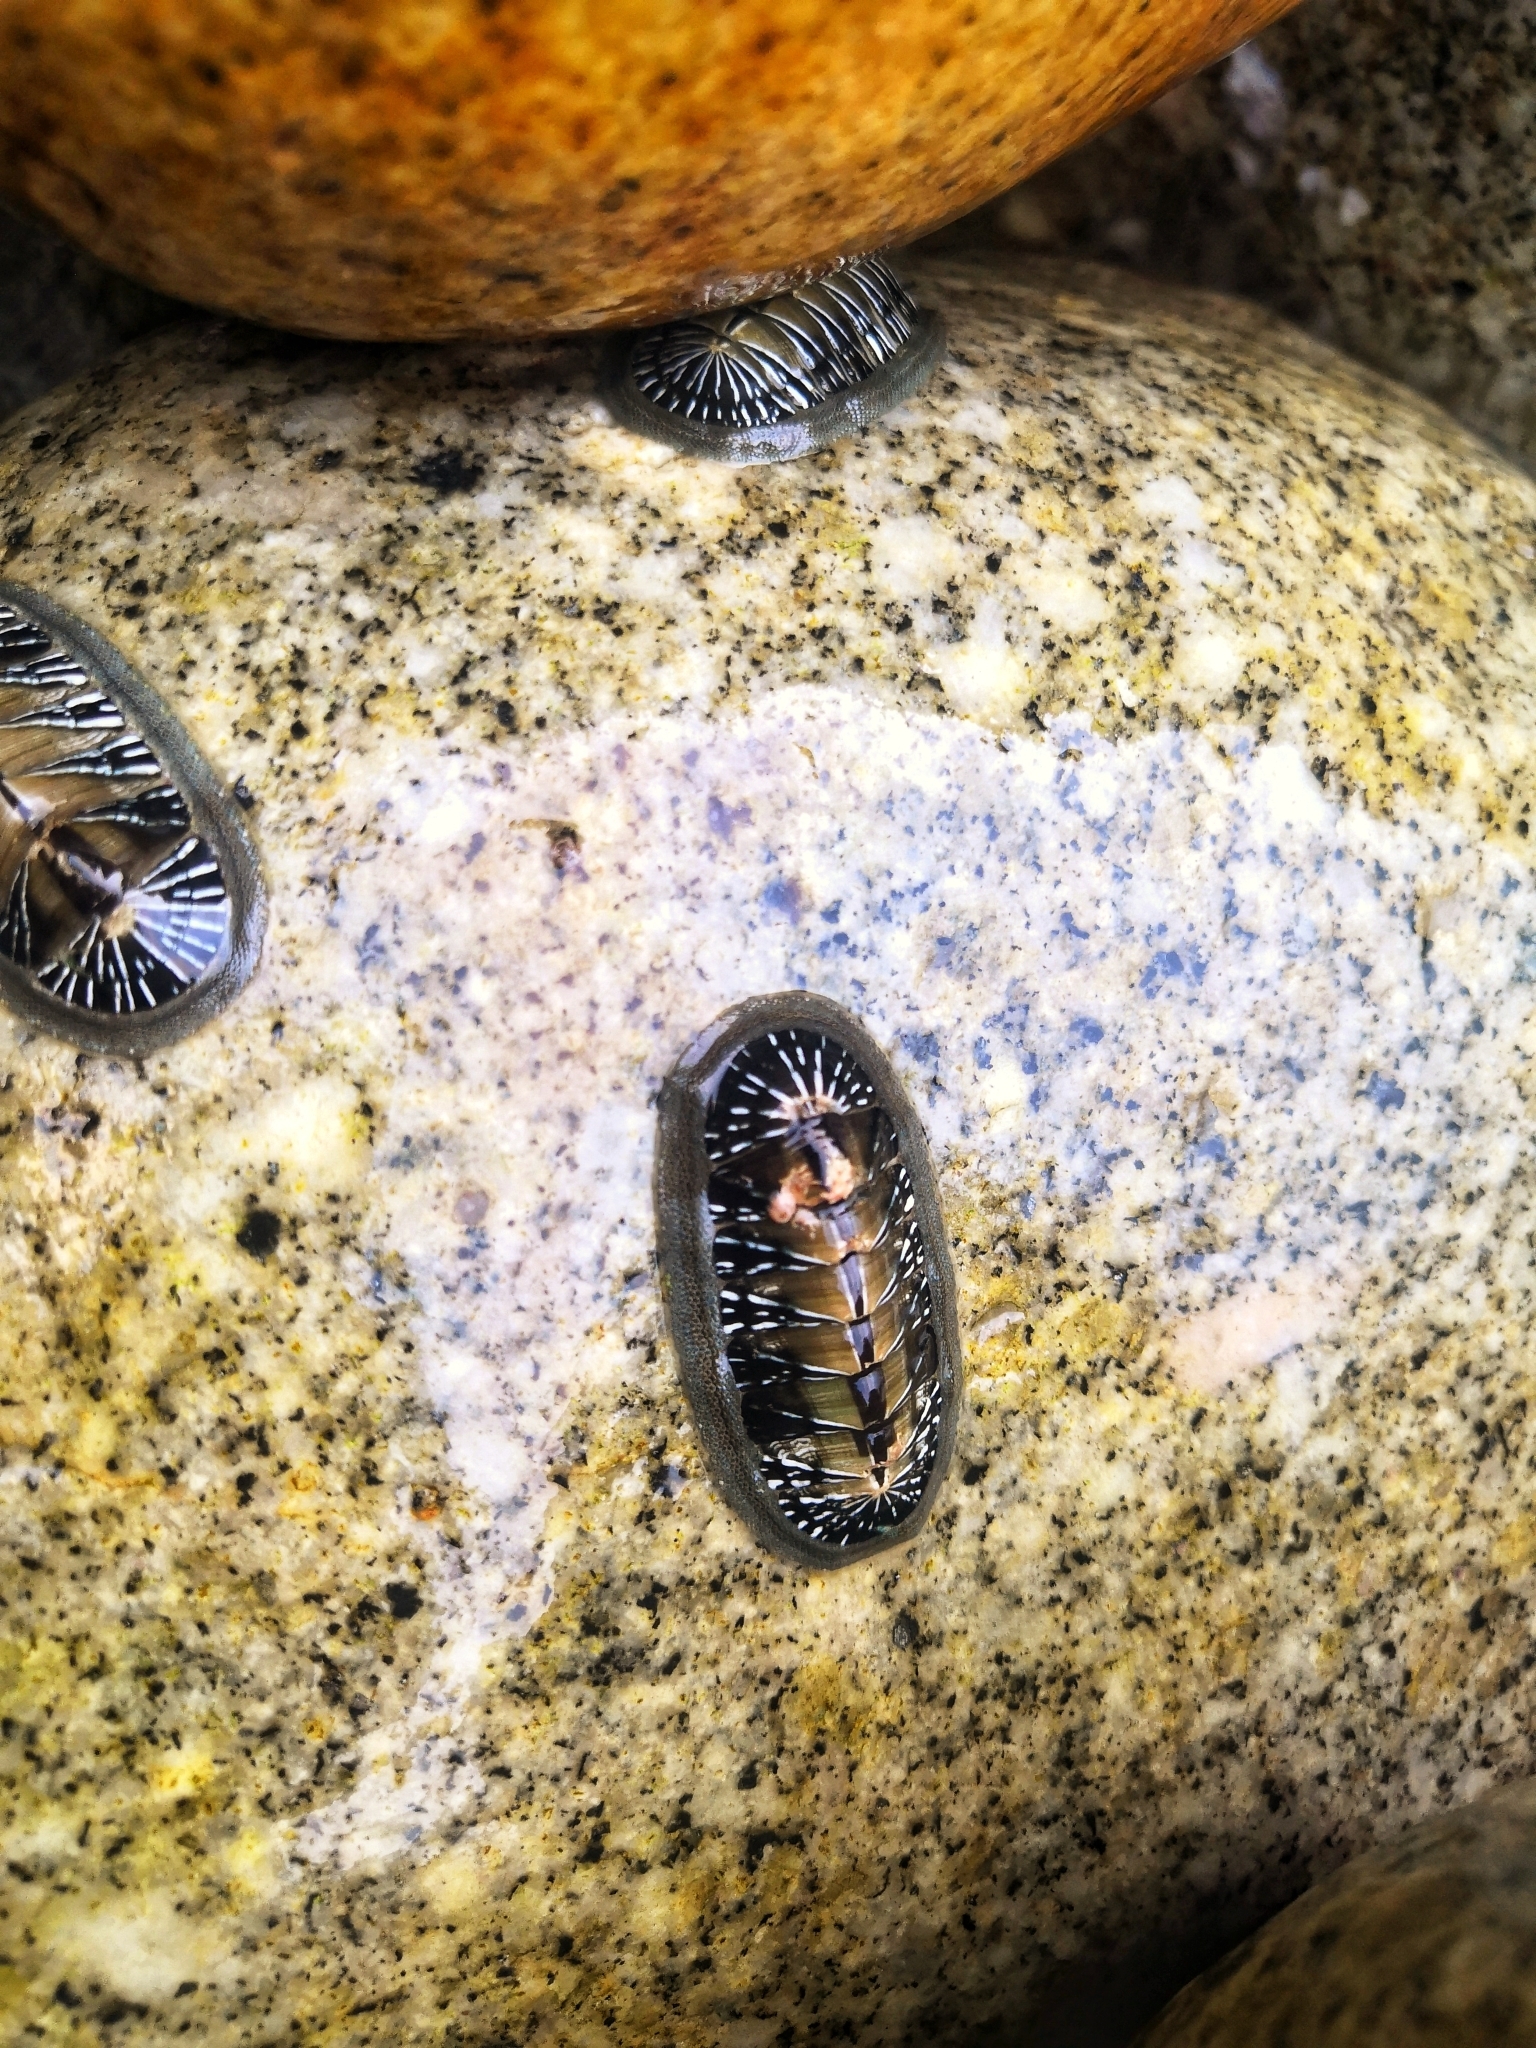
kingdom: Animalia
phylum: Mollusca
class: Polyplacophora
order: Chitonida
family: Chitonidae
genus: Chiton
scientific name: Chiton albolineatus
